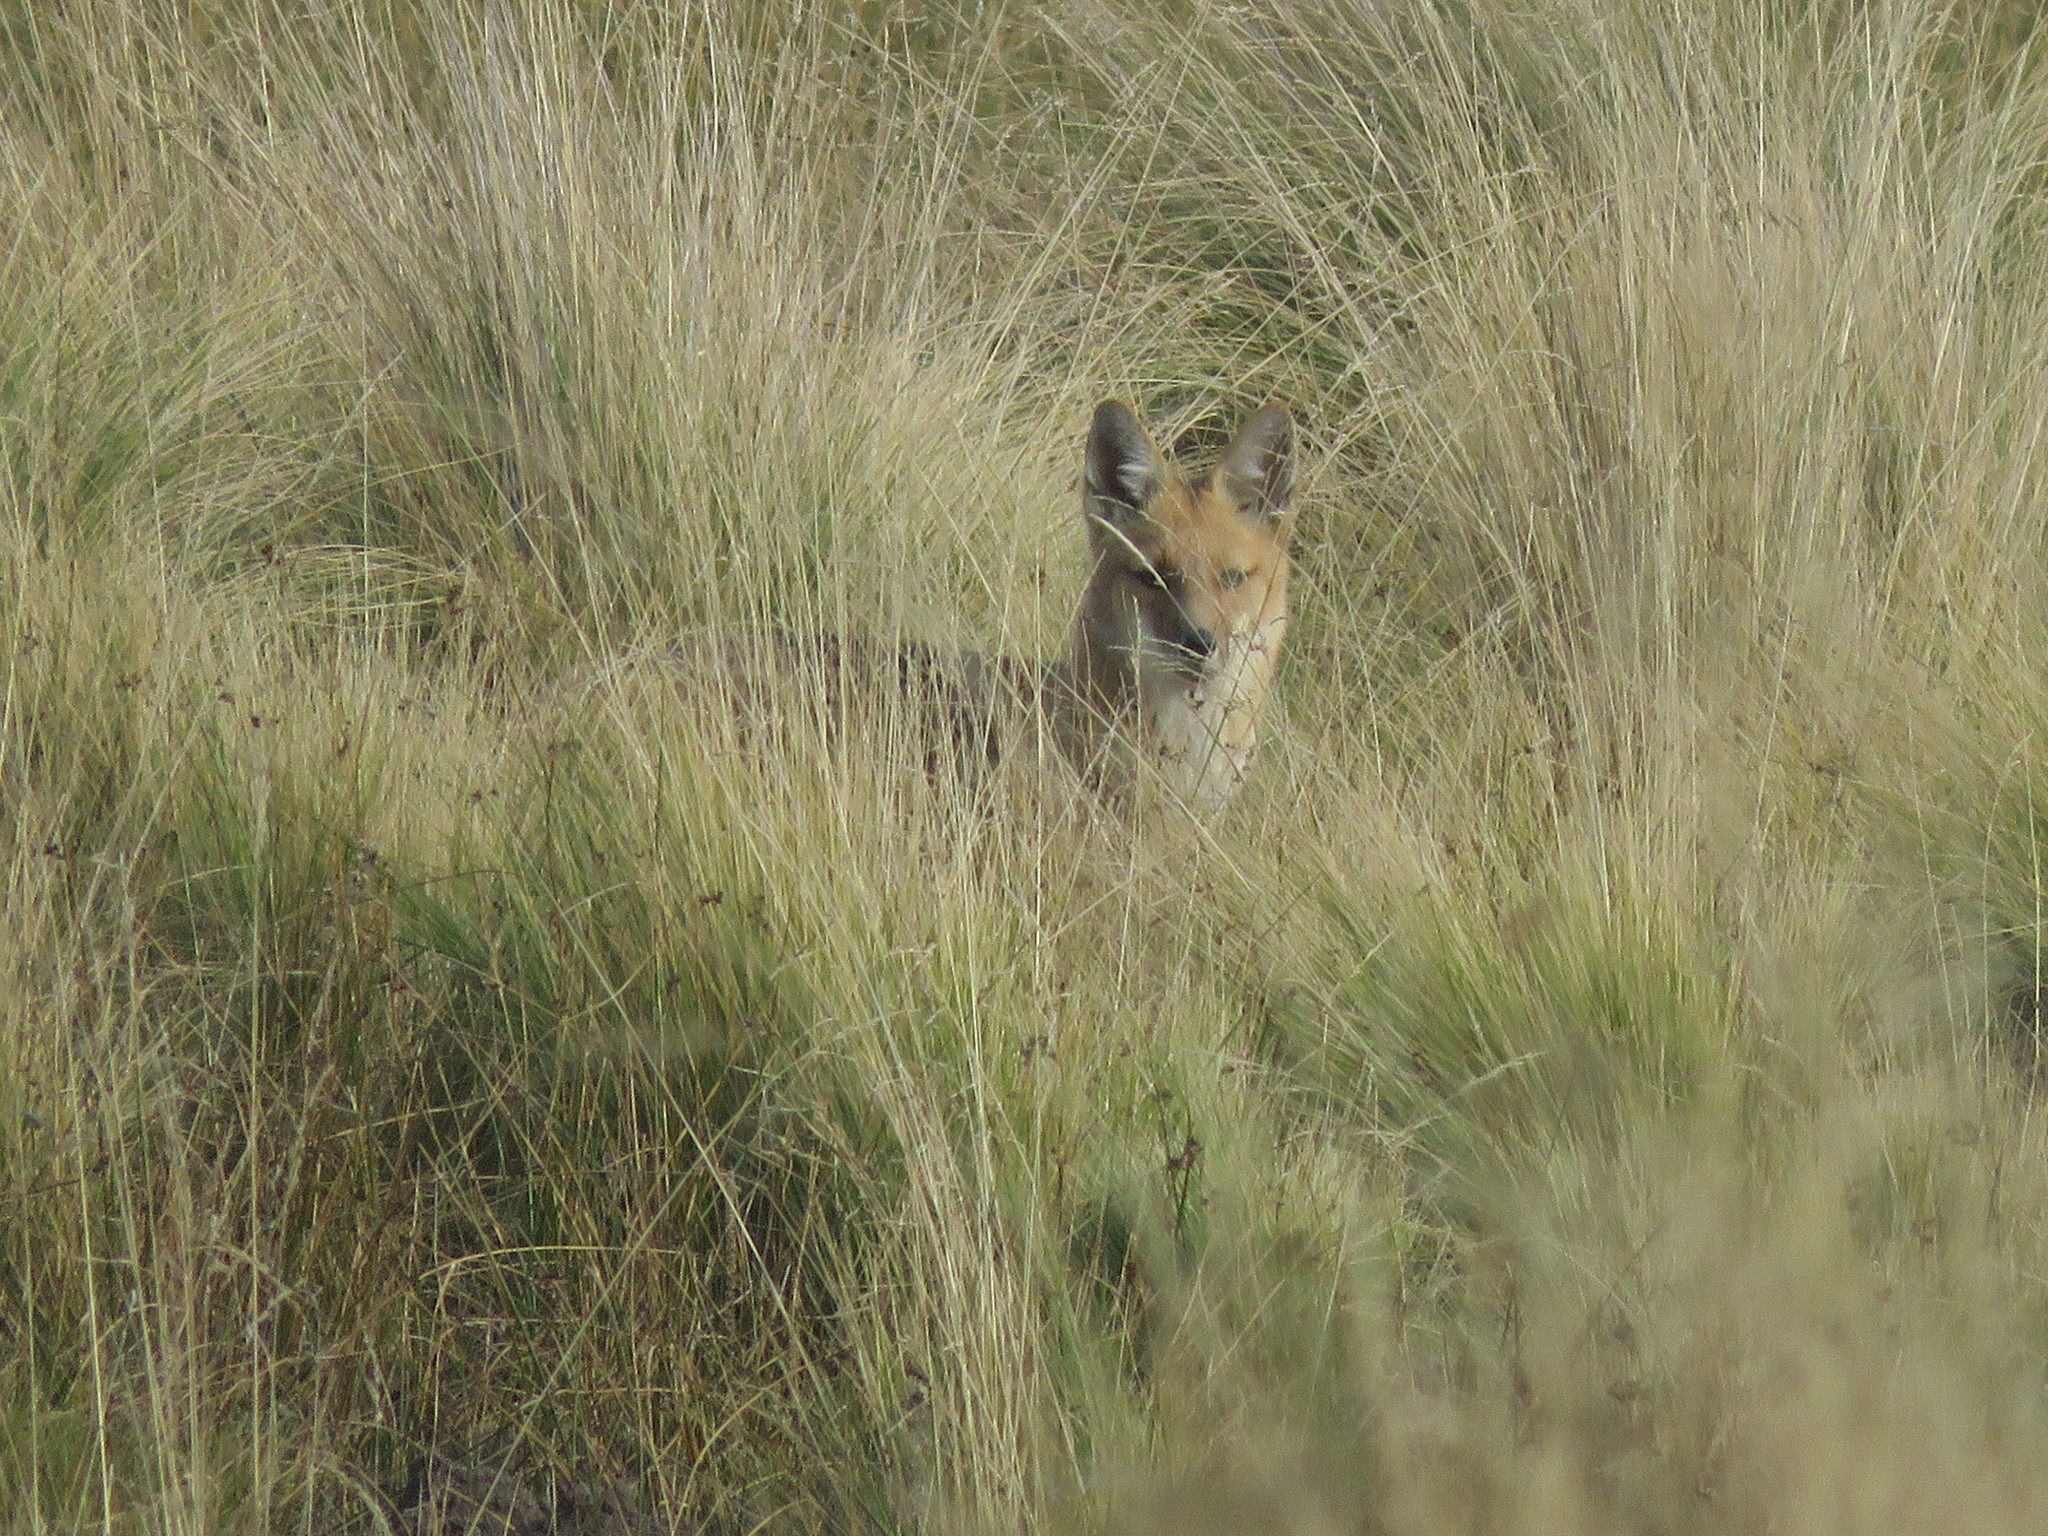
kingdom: Animalia
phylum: Chordata
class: Mammalia
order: Carnivora
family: Canidae
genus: Lycalopex
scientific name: Lycalopex culpaeus
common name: Culpeo
